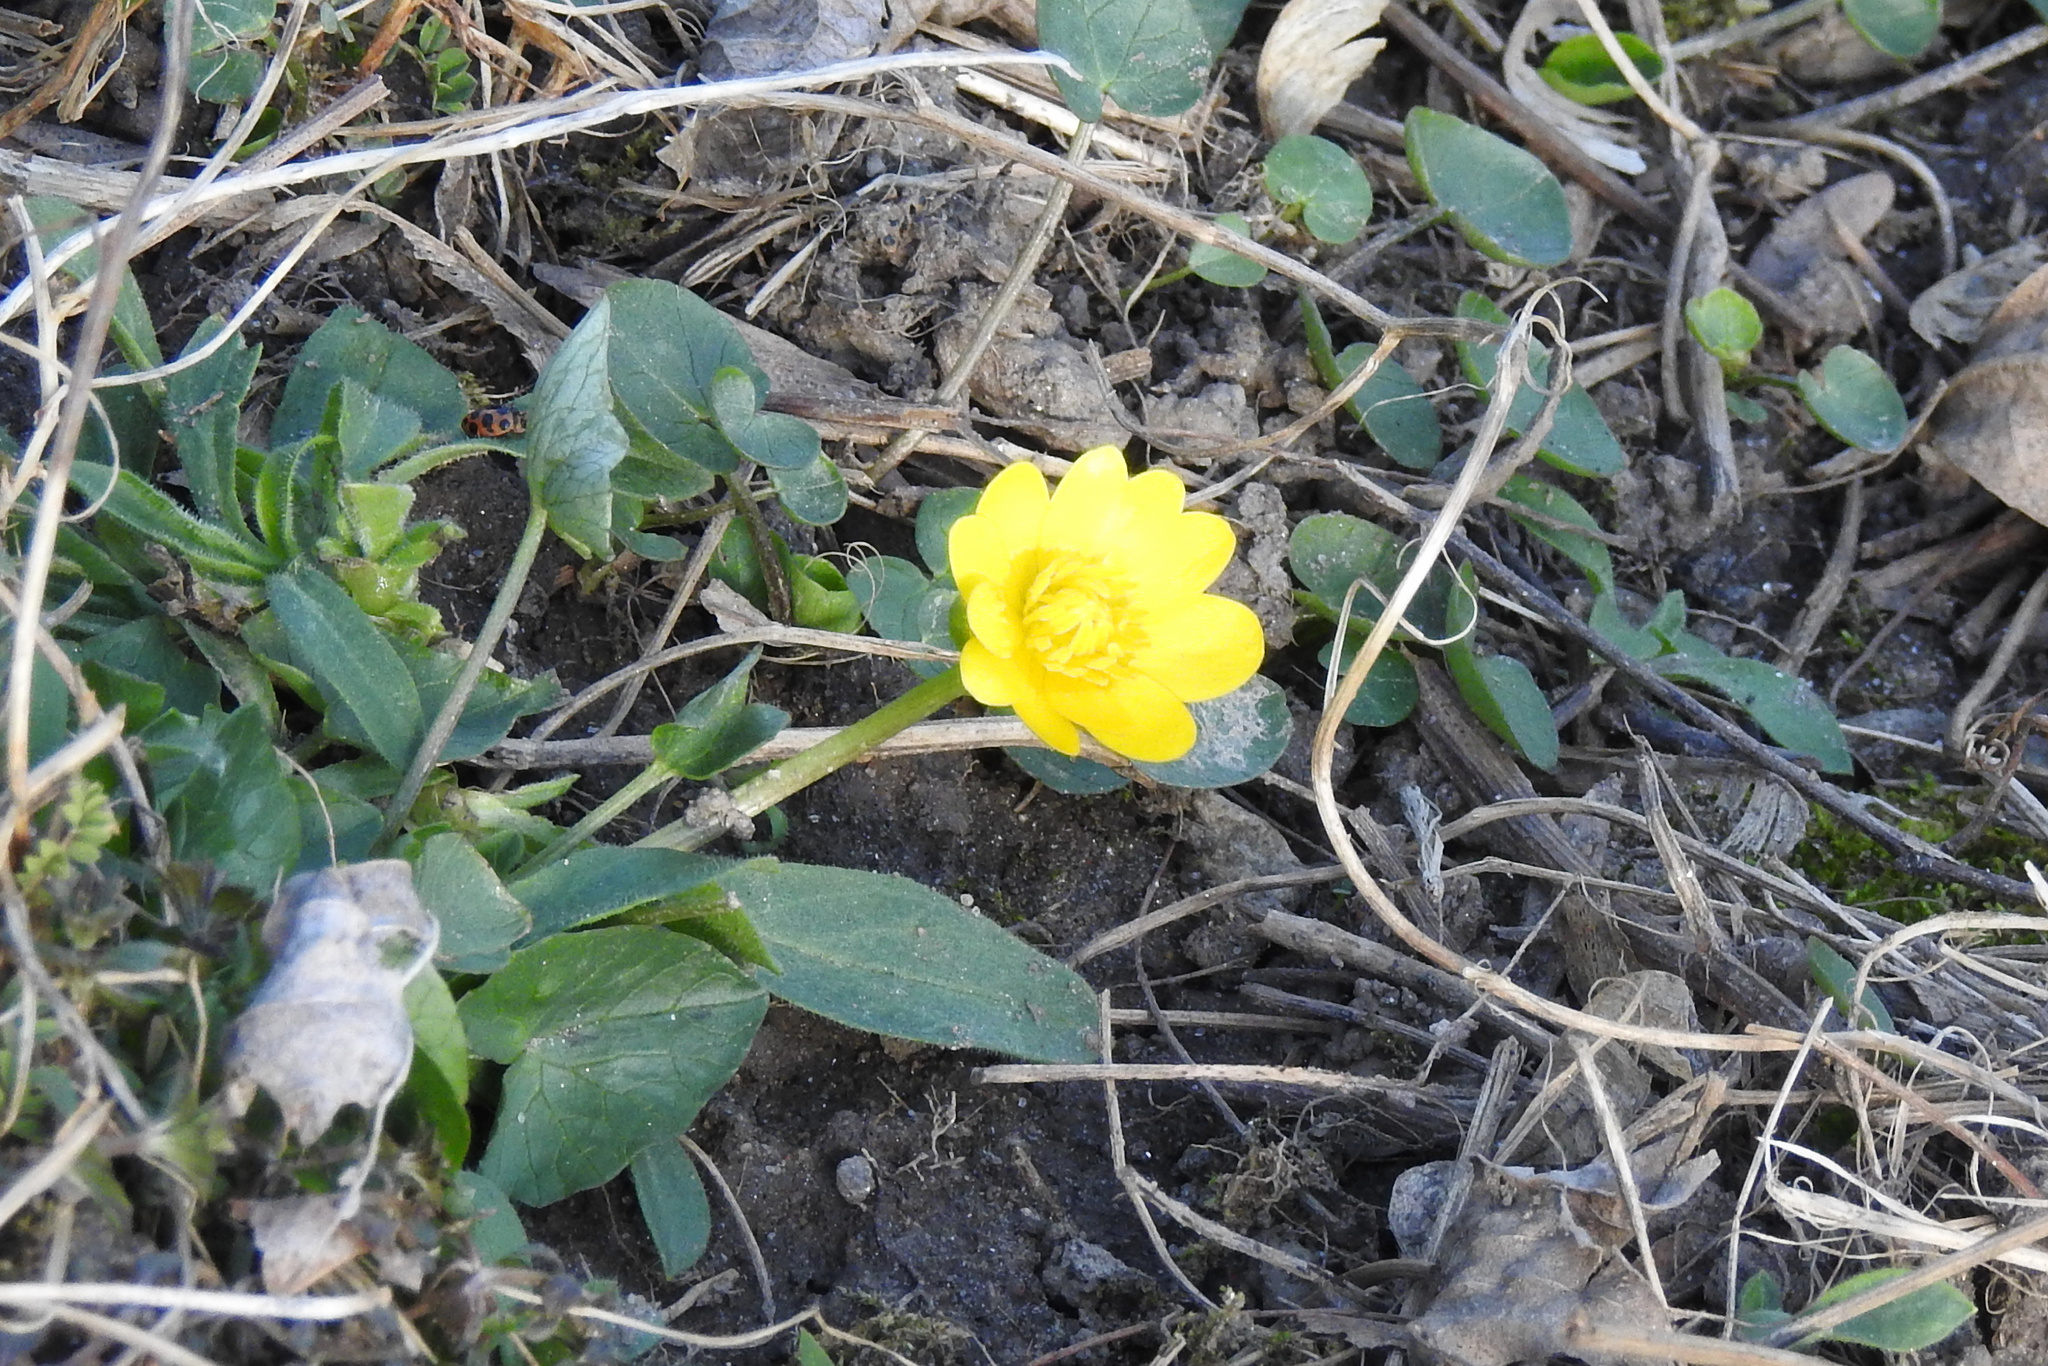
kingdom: Plantae
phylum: Tracheophyta
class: Magnoliopsida
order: Ranunculales
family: Ranunculaceae
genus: Ficaria
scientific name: Ficaria verna
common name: Lesser celandine
